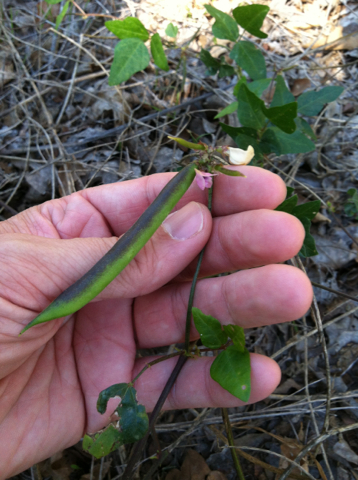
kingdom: Plantae
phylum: Tracheophyta
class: Magnoliopsida
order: Fabales
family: Fabaceae
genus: Strophostyles
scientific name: Strophostyles helvola
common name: Trailing wild bean
